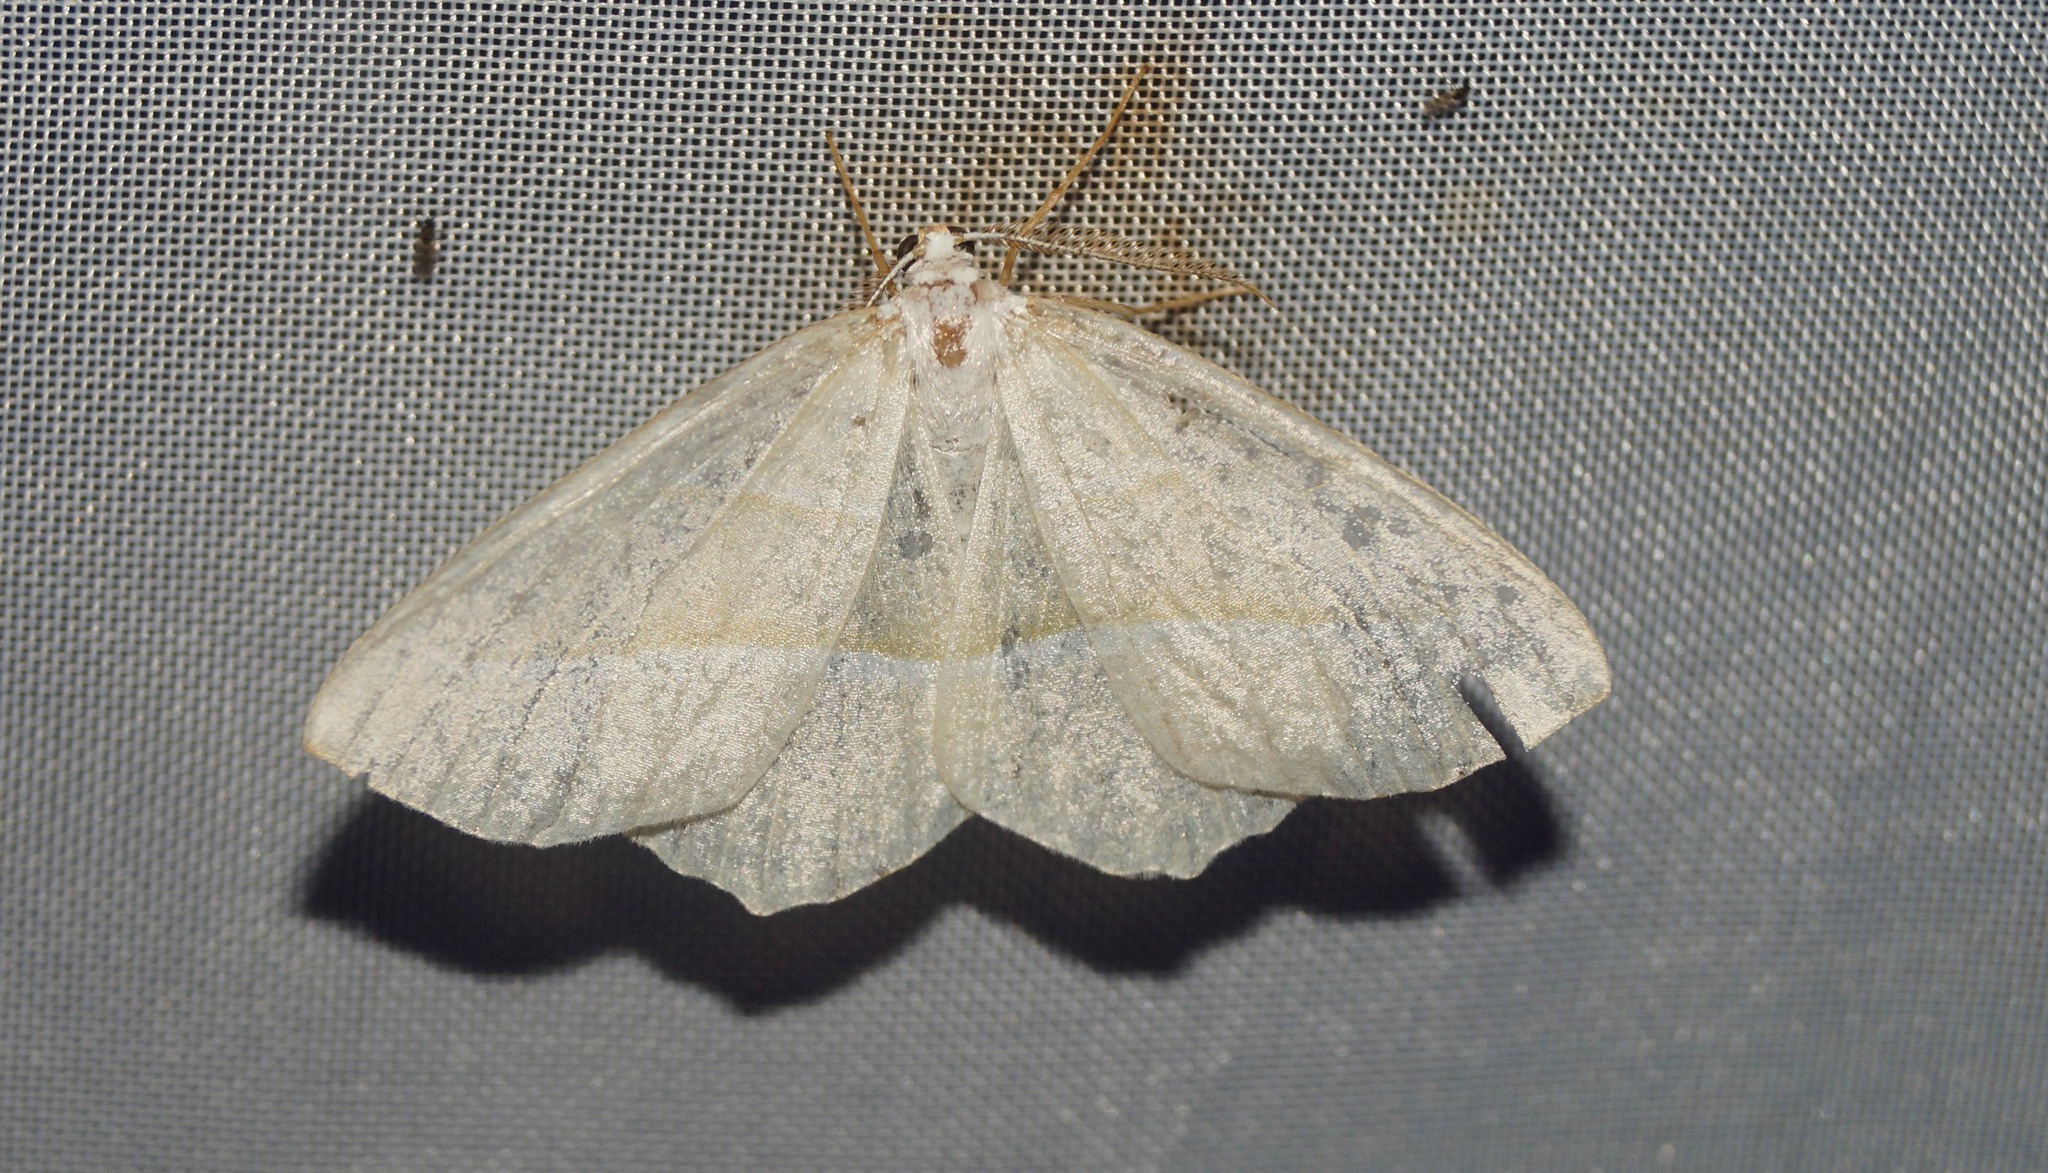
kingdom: Animalia
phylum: Arthropoda
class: Insecta
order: Lepidoptera
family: Geometridae
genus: Campaea
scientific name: Campaea margaritaria
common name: Light emerald
